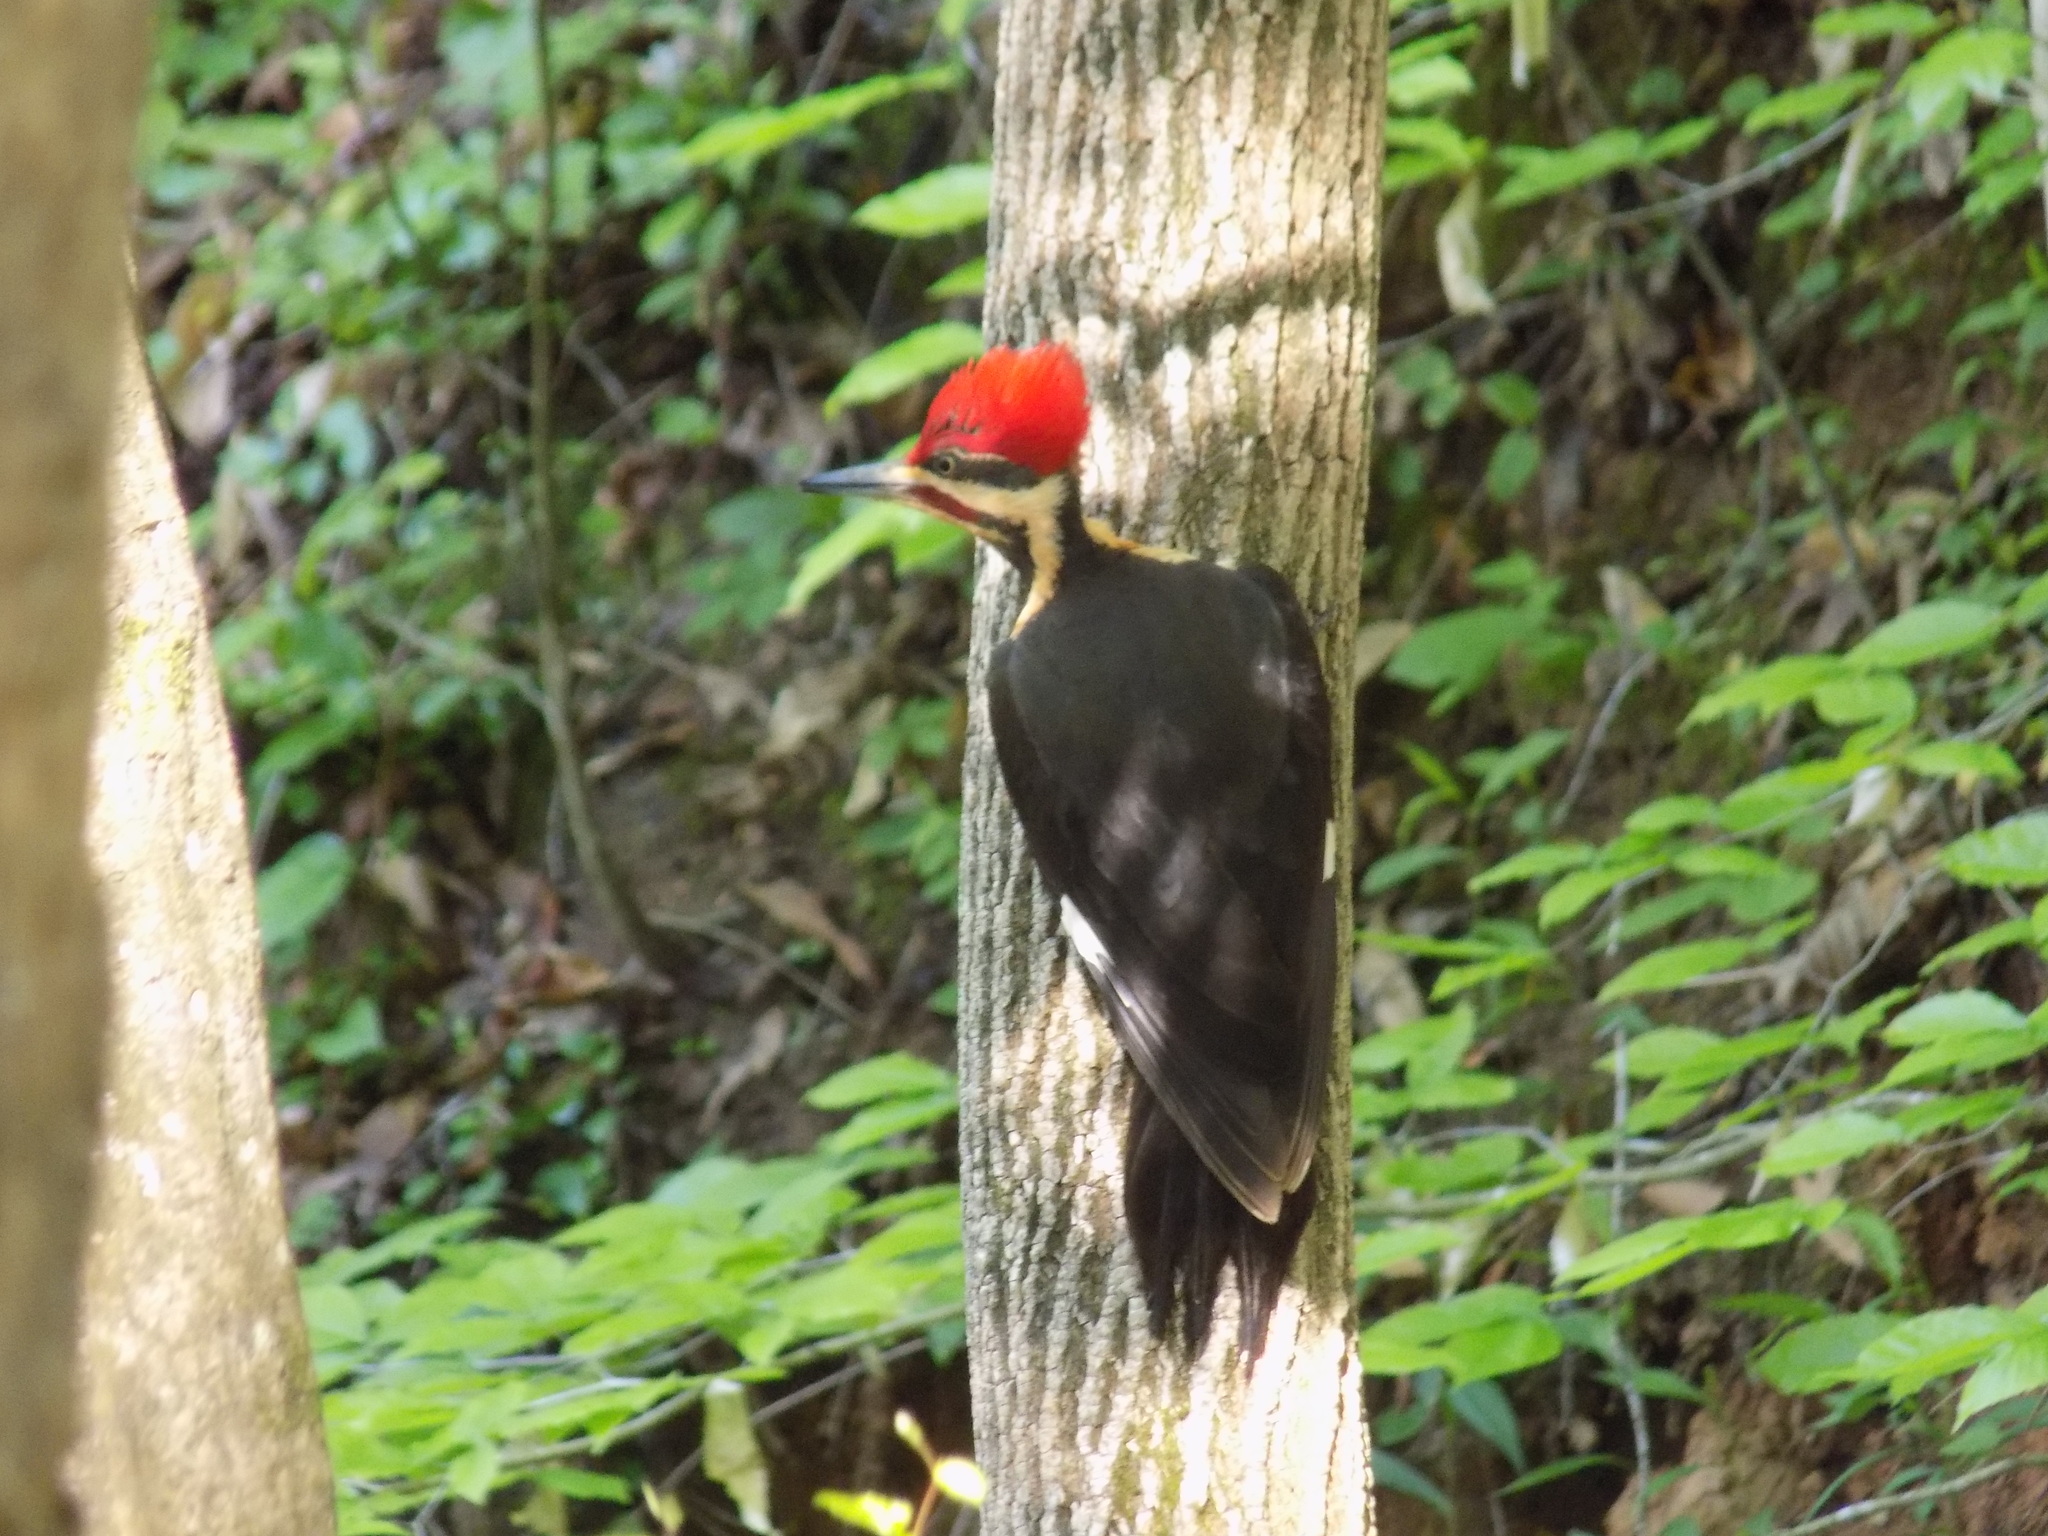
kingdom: Animalia
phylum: Chordata
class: Aves
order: Piciformes
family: Picidae
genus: Dryocopus
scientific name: Dryocopus pileatus
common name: Pileated woodpecker
